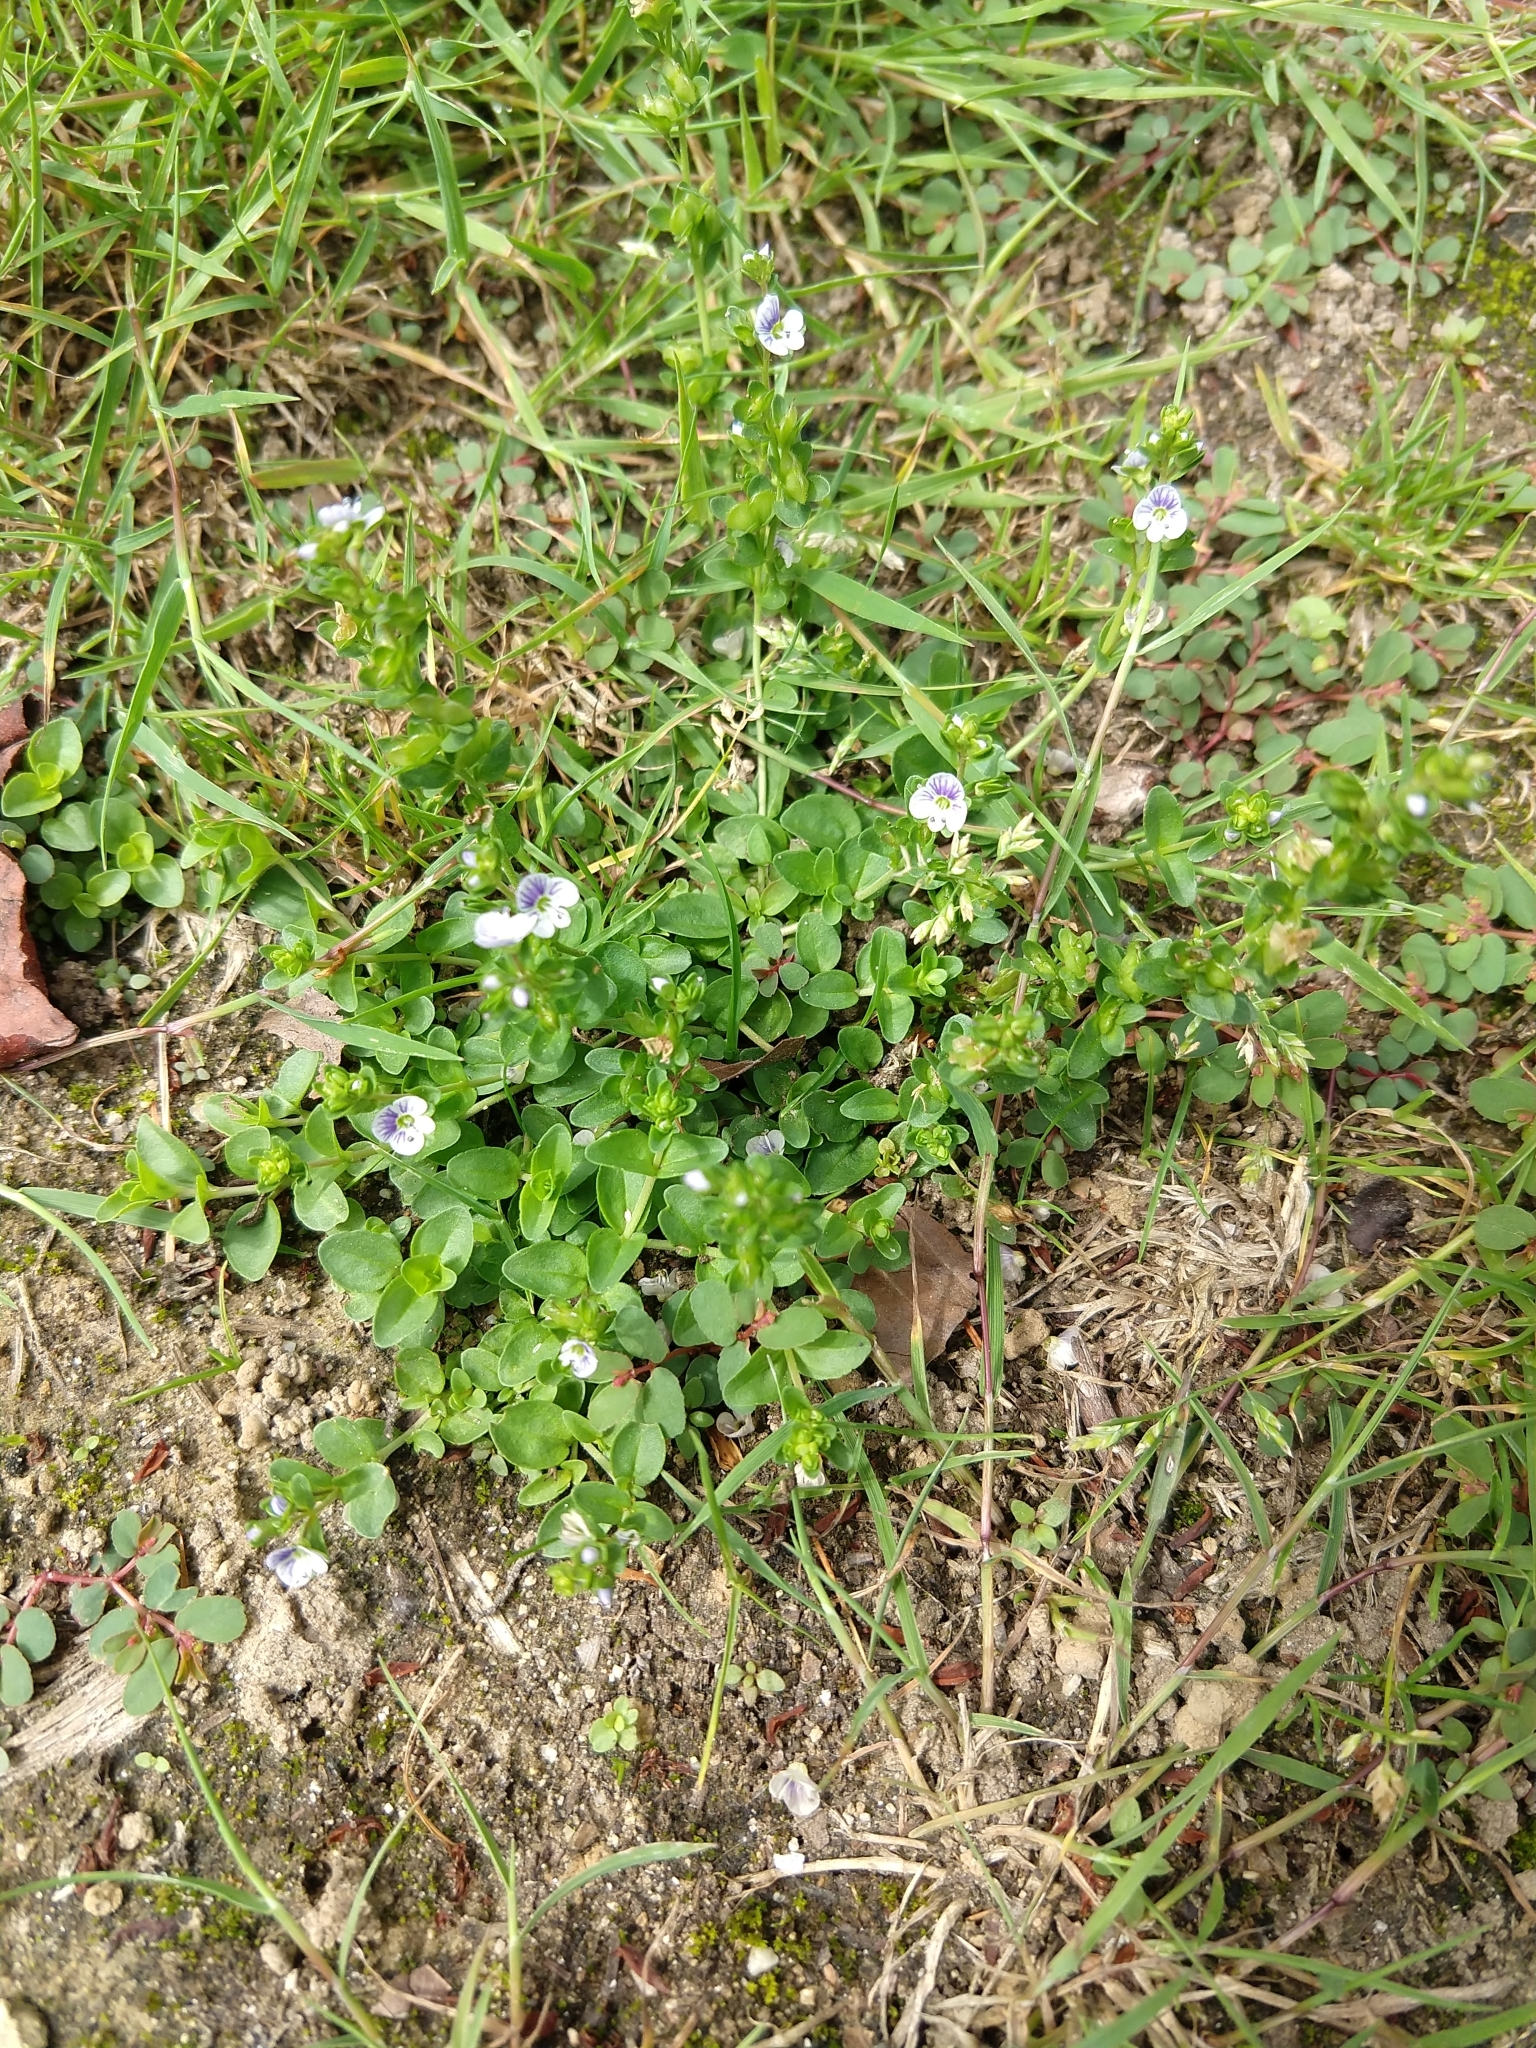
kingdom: Plantae
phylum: Tracheophyta
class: Magnoliopsida
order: Lamiales
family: Plantaginaceae
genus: Veronica
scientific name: Veronica serpyllifolia
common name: Thyme-leaved speedwell
